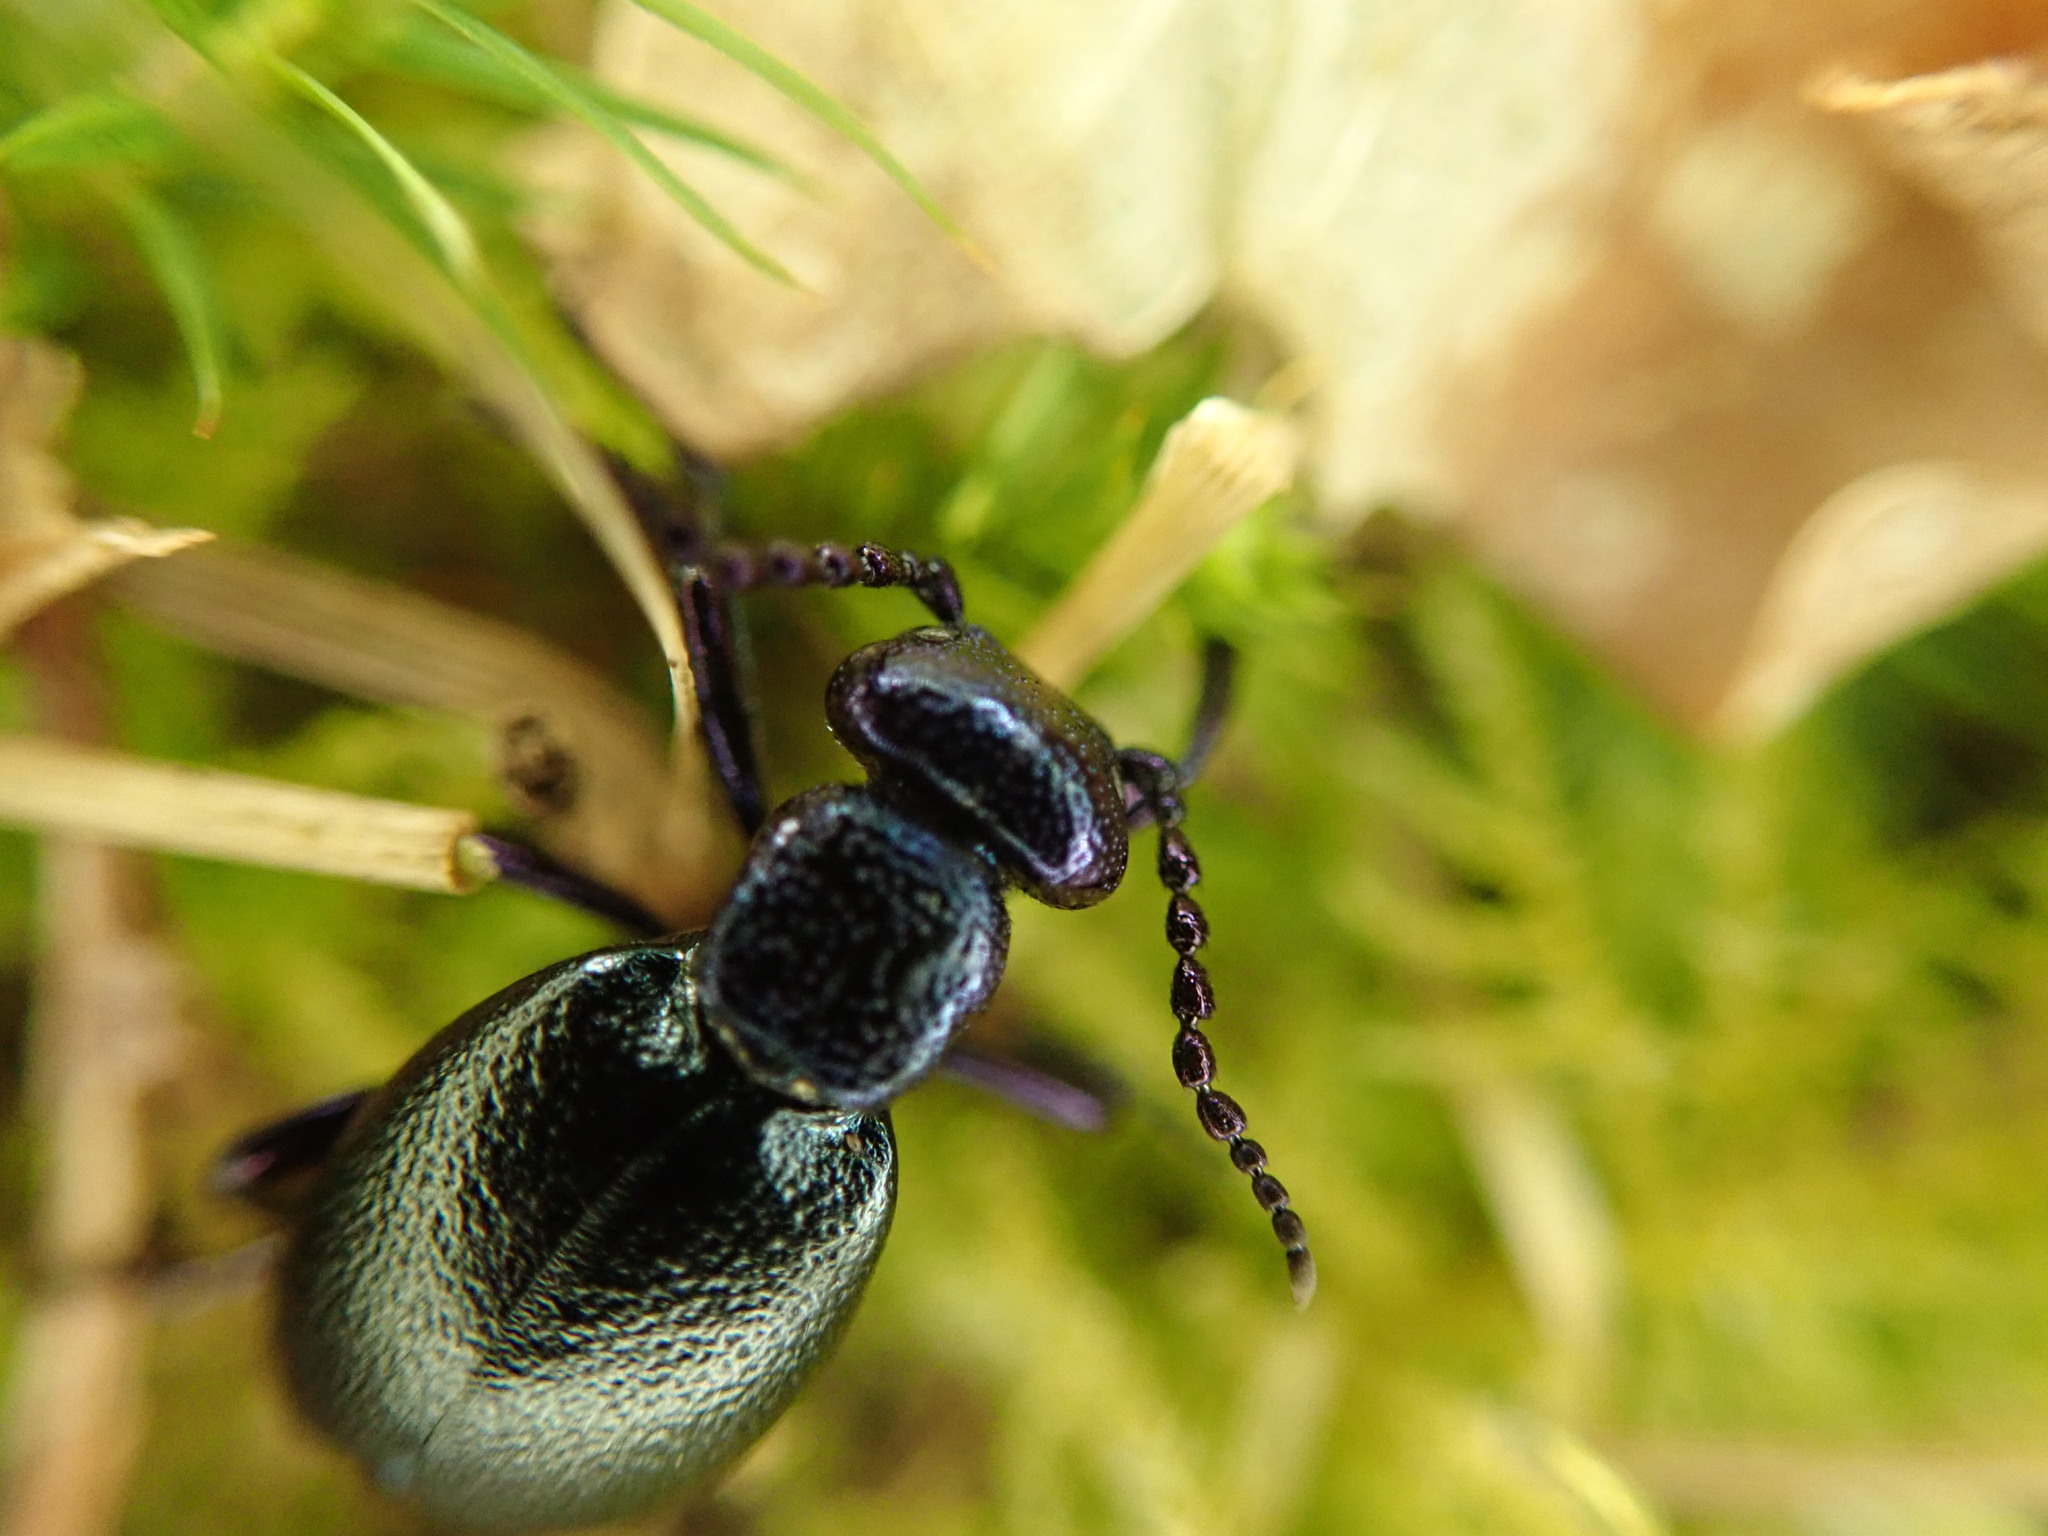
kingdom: Animalia
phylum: Arthropoda
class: Insecta
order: Coleoptera
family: Meloidae
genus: Meloe
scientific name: Meloe proscarabaeus
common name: Black oil-beetle
